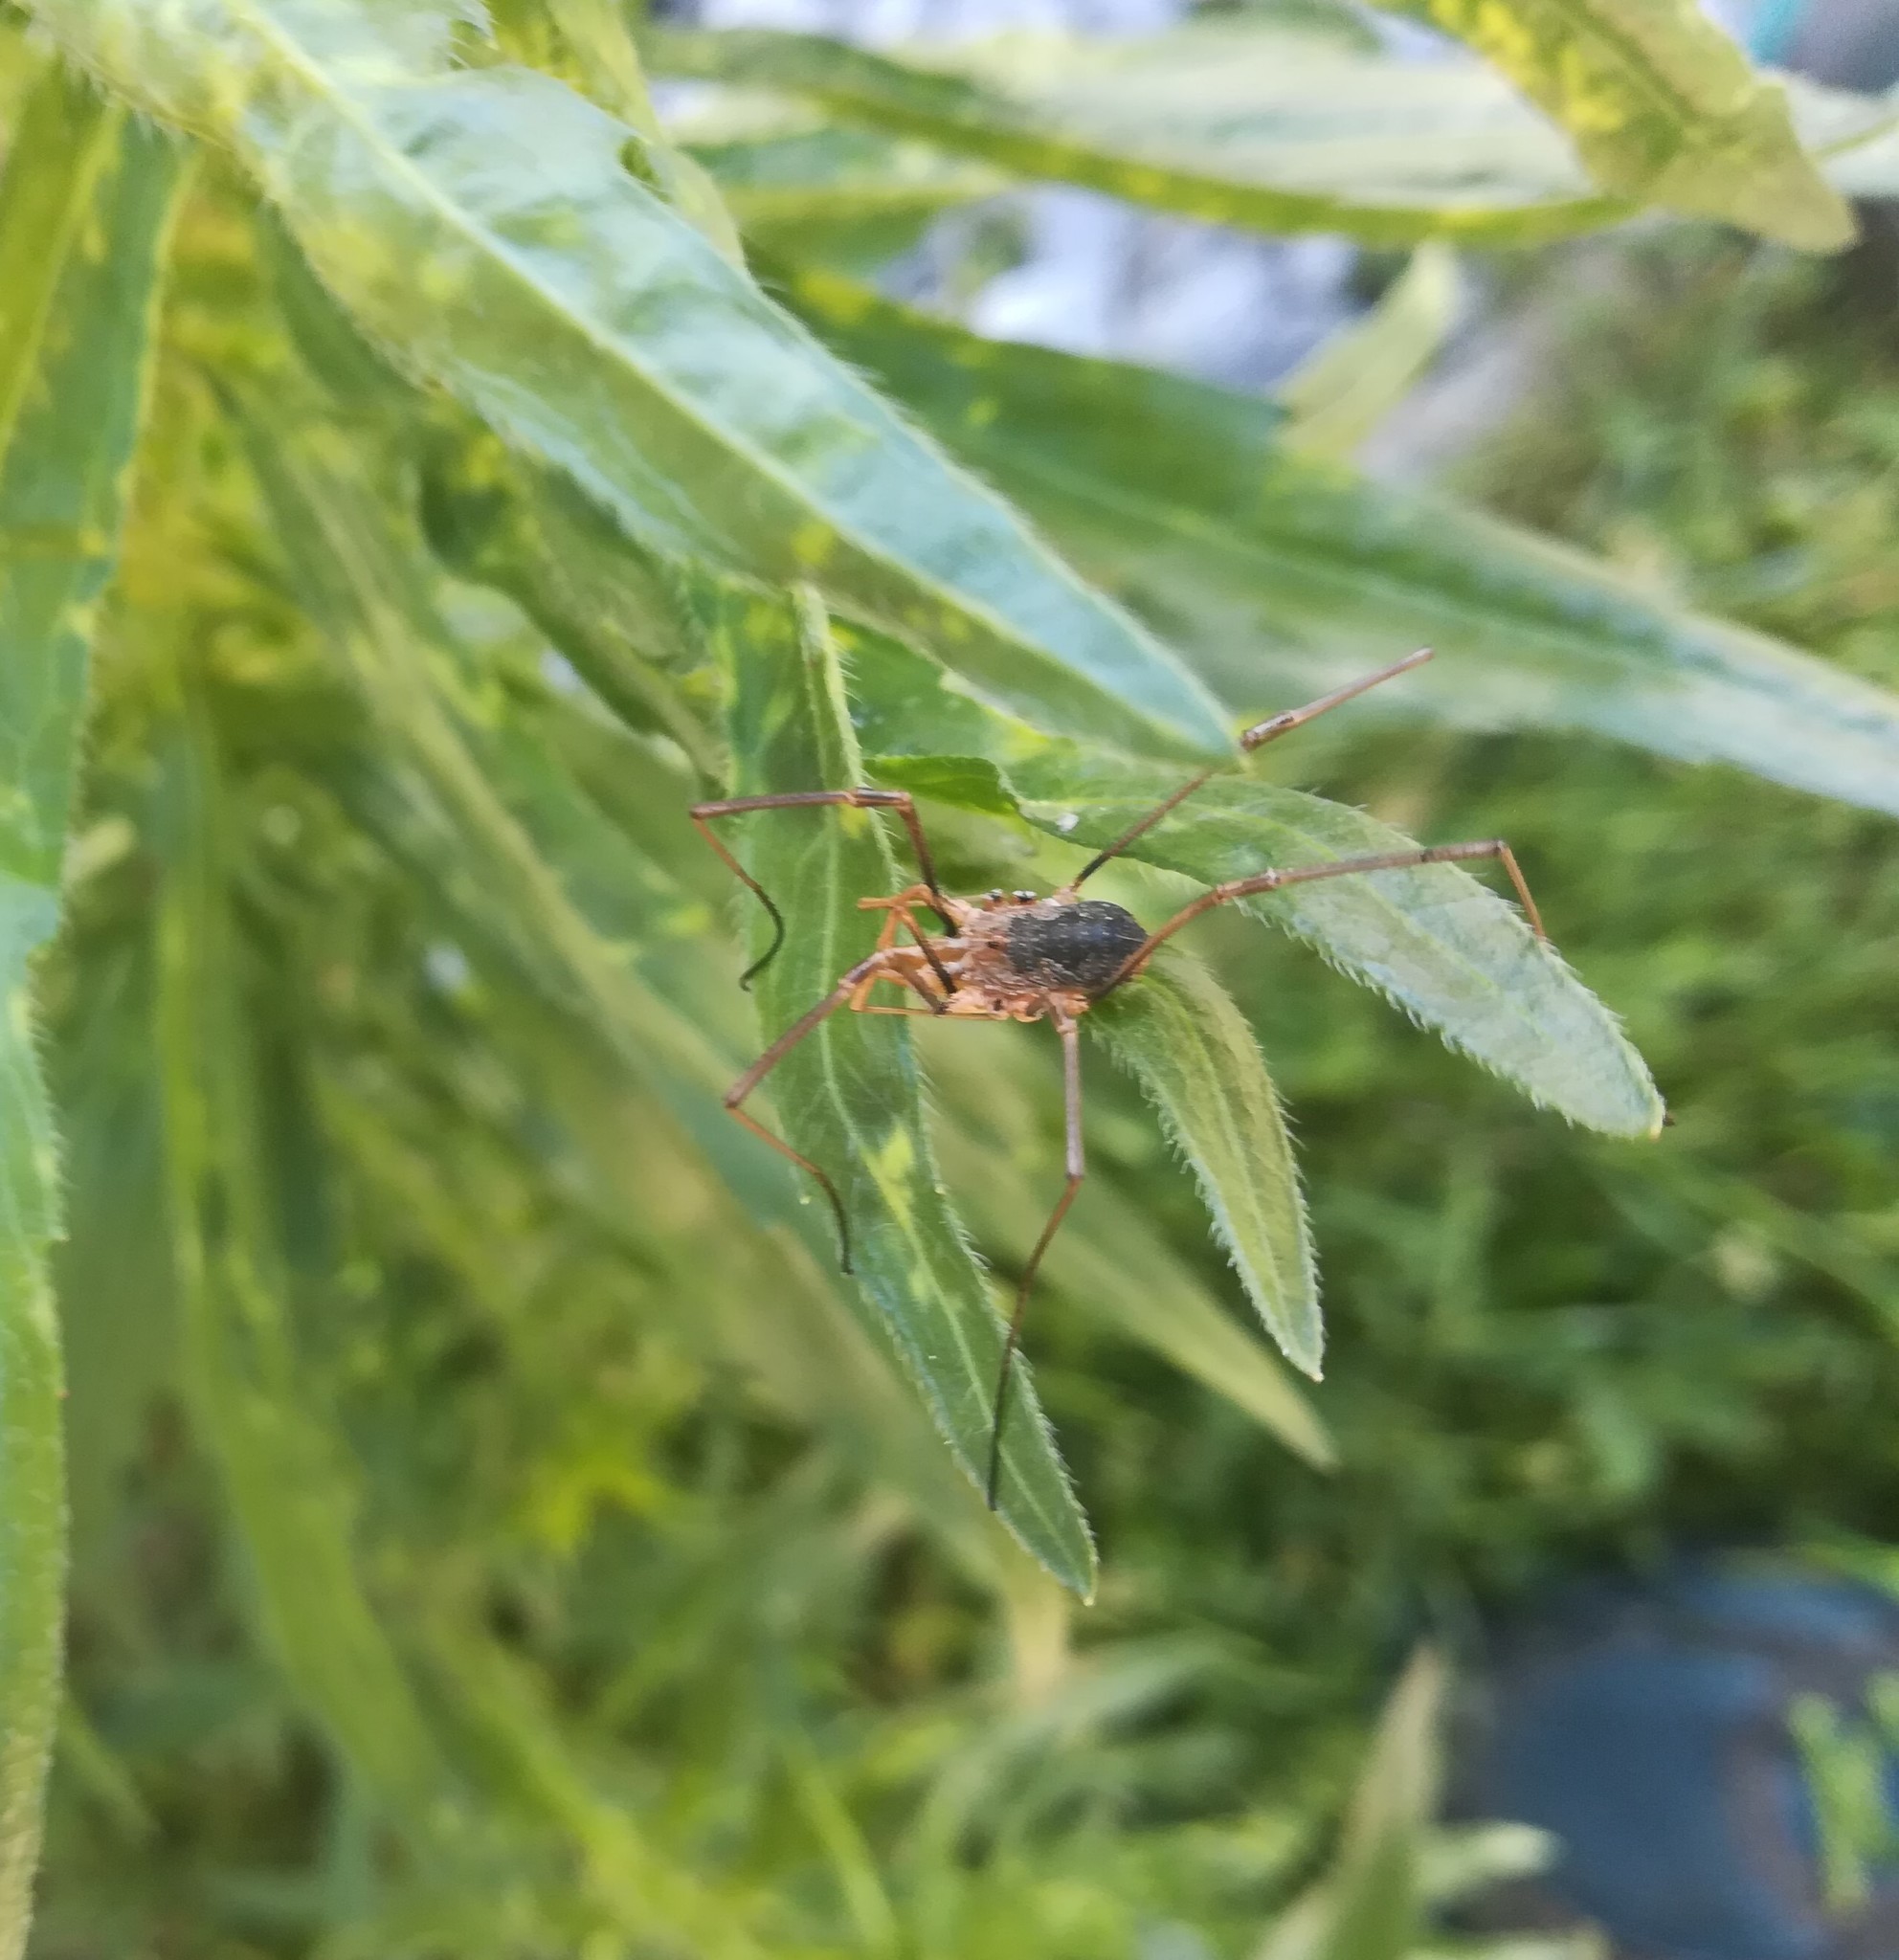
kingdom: Animalia
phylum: Arthropoda
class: Arachnida
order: Opiliones
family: Phalangiidae
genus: Phalangium
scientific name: Phalangium opilio
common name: Daddy longleg
